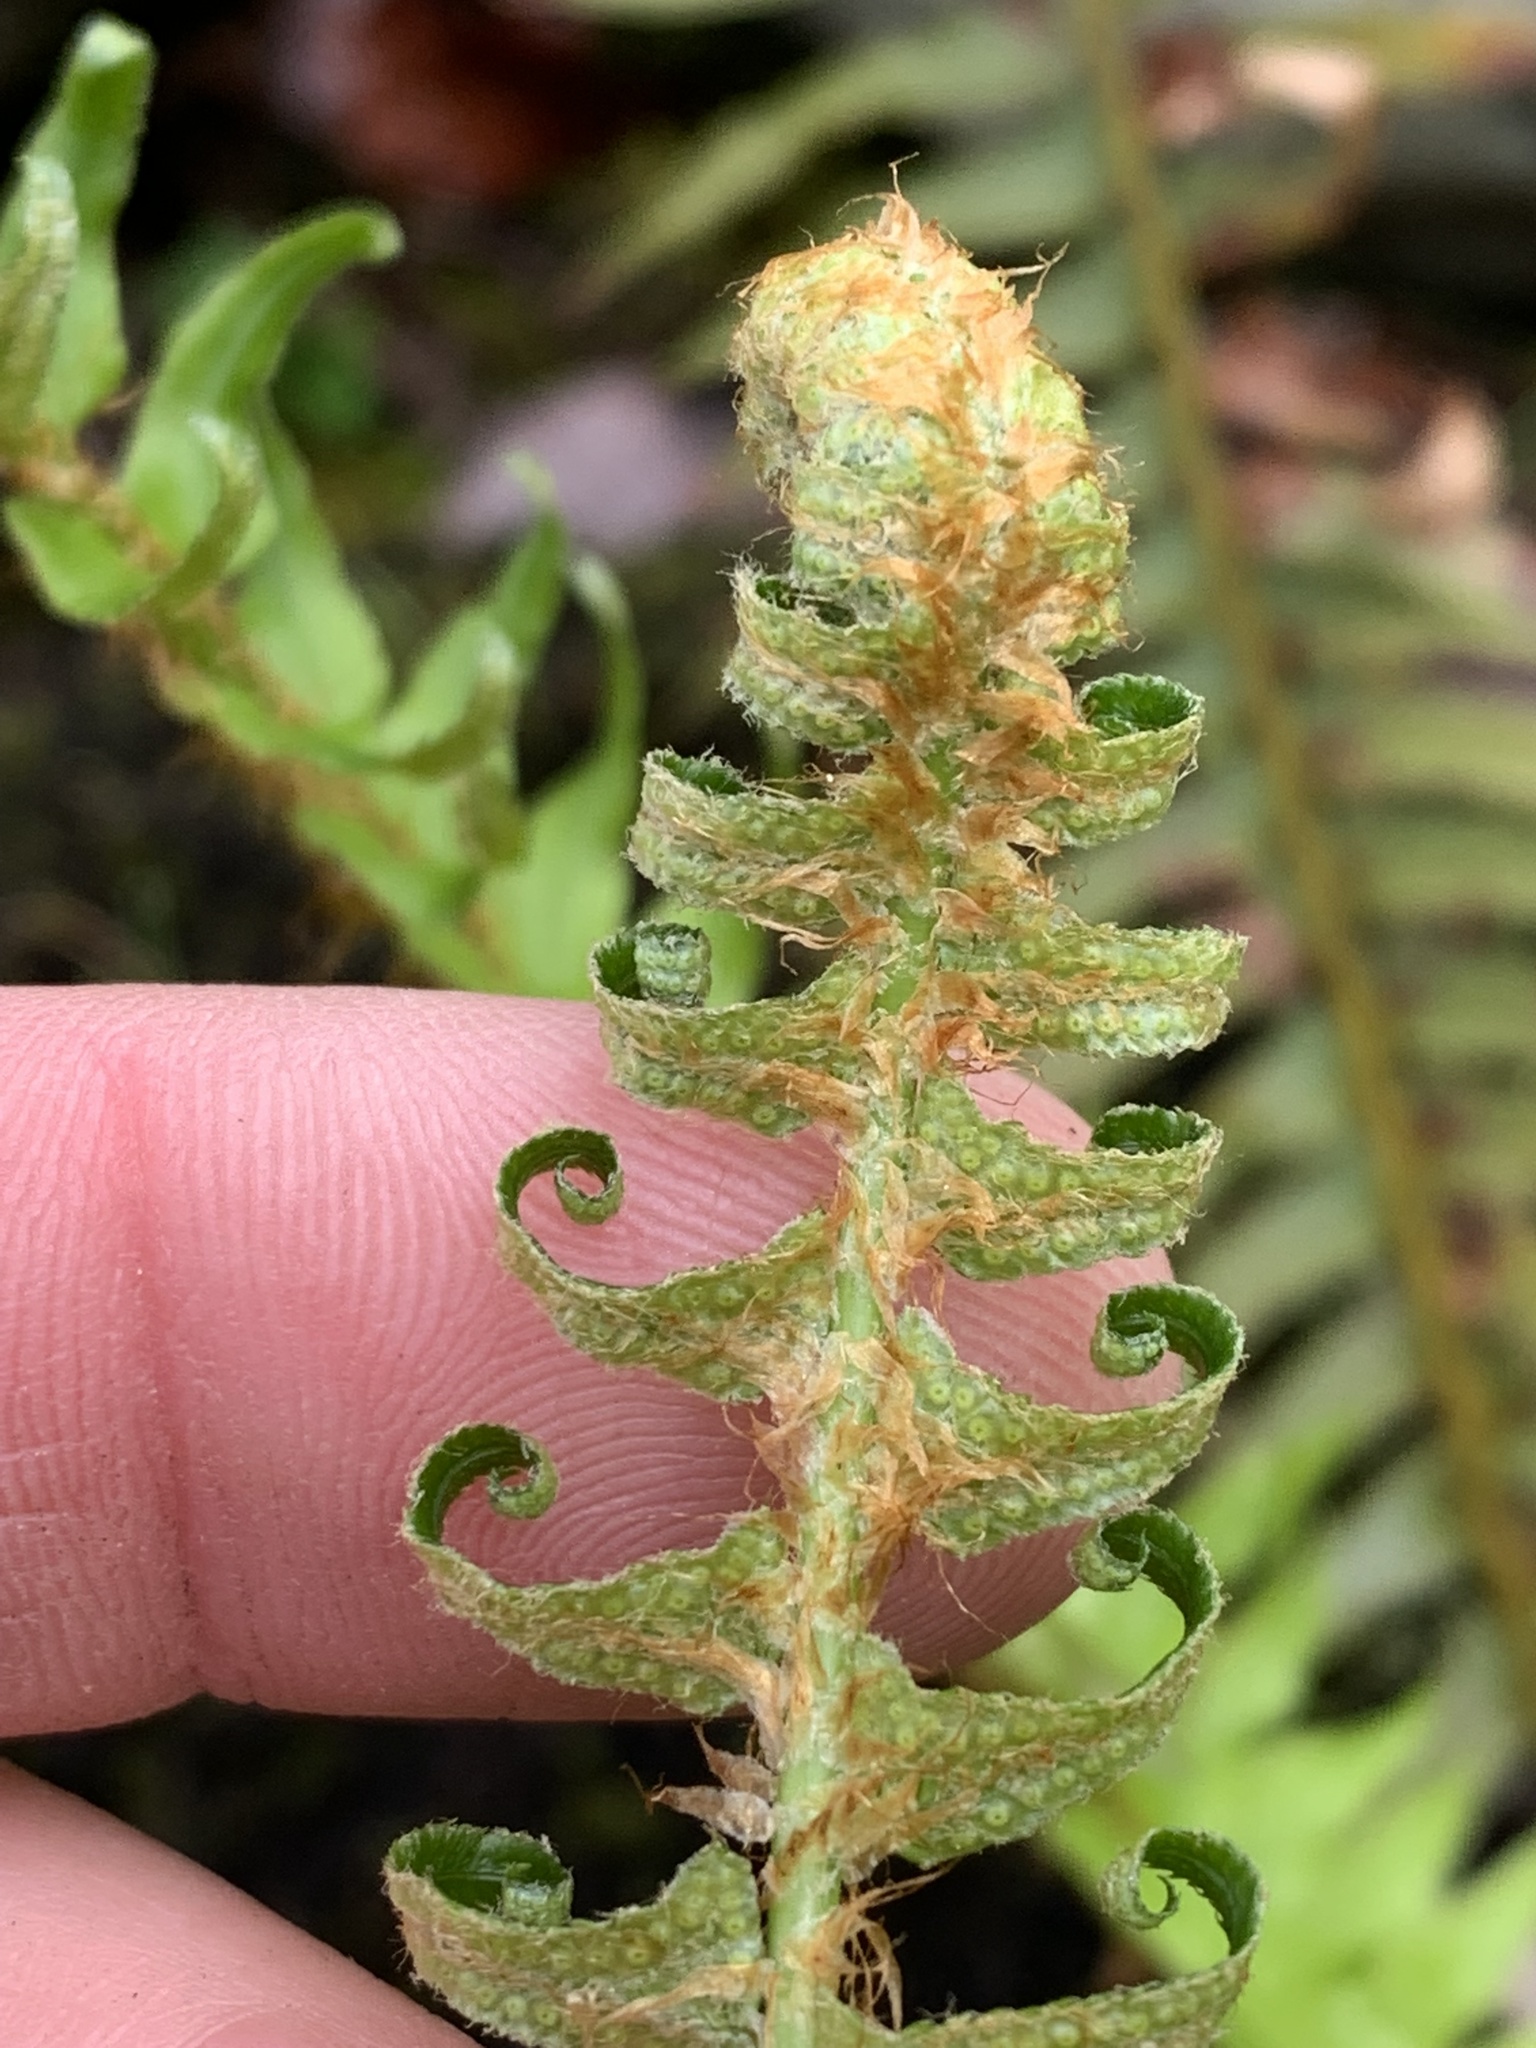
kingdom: Plantae
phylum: Tracheophyta
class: Polypodiopsida
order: Polypodiales
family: Dryopteridaceae
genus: Polystichum
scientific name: Polystichum munitum
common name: Western sword-fern
